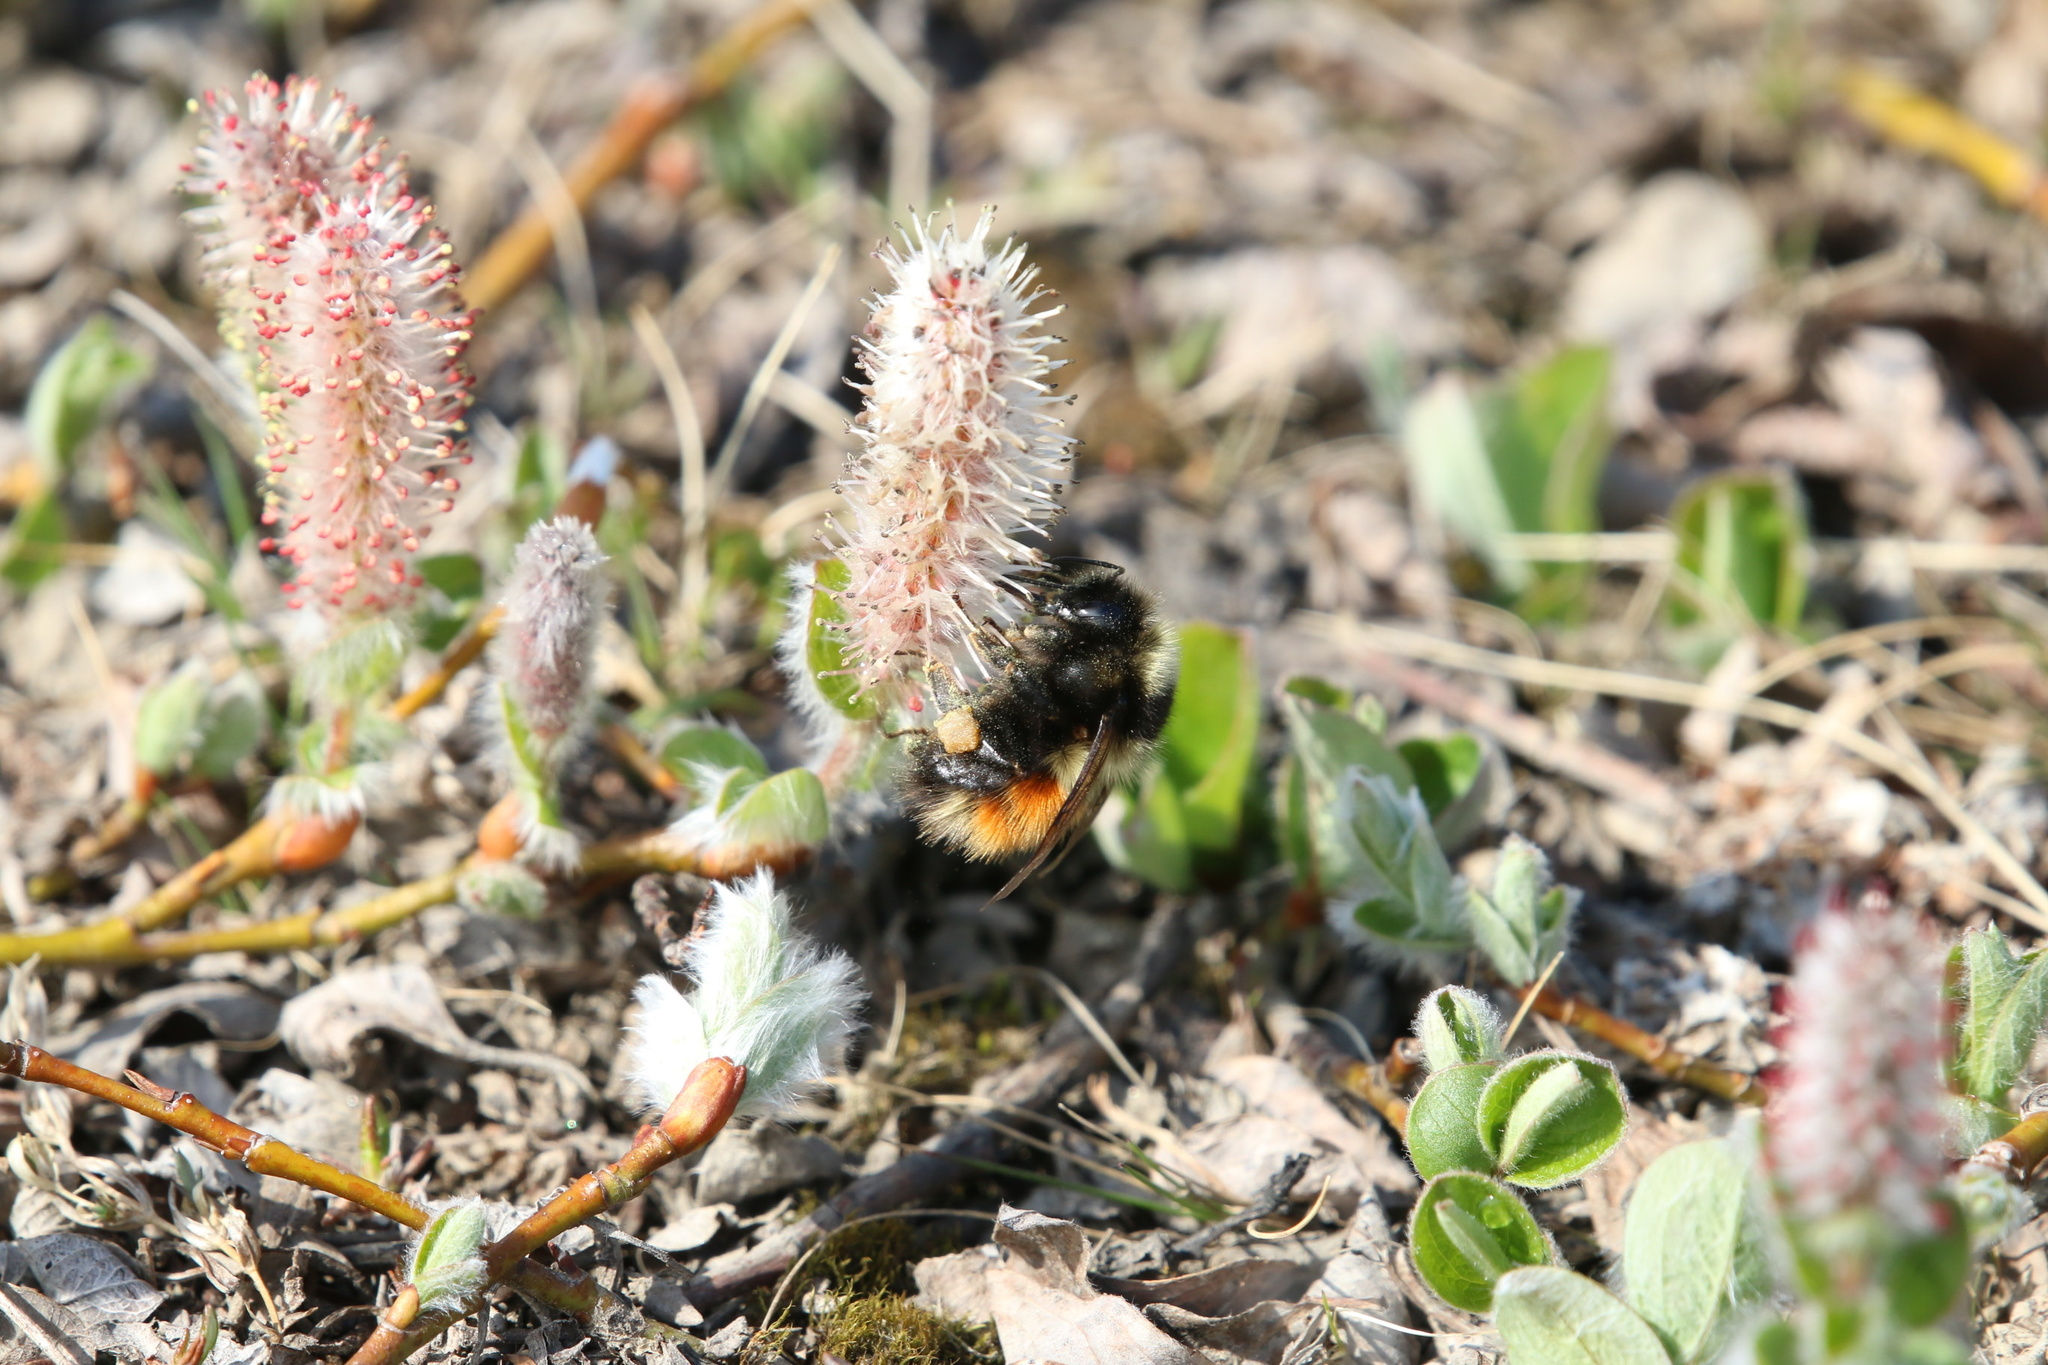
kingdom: Animalia
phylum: Arthropoda
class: Insecta
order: Hymenoptera
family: Apidae
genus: Bombus
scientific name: Bombus johanseni
